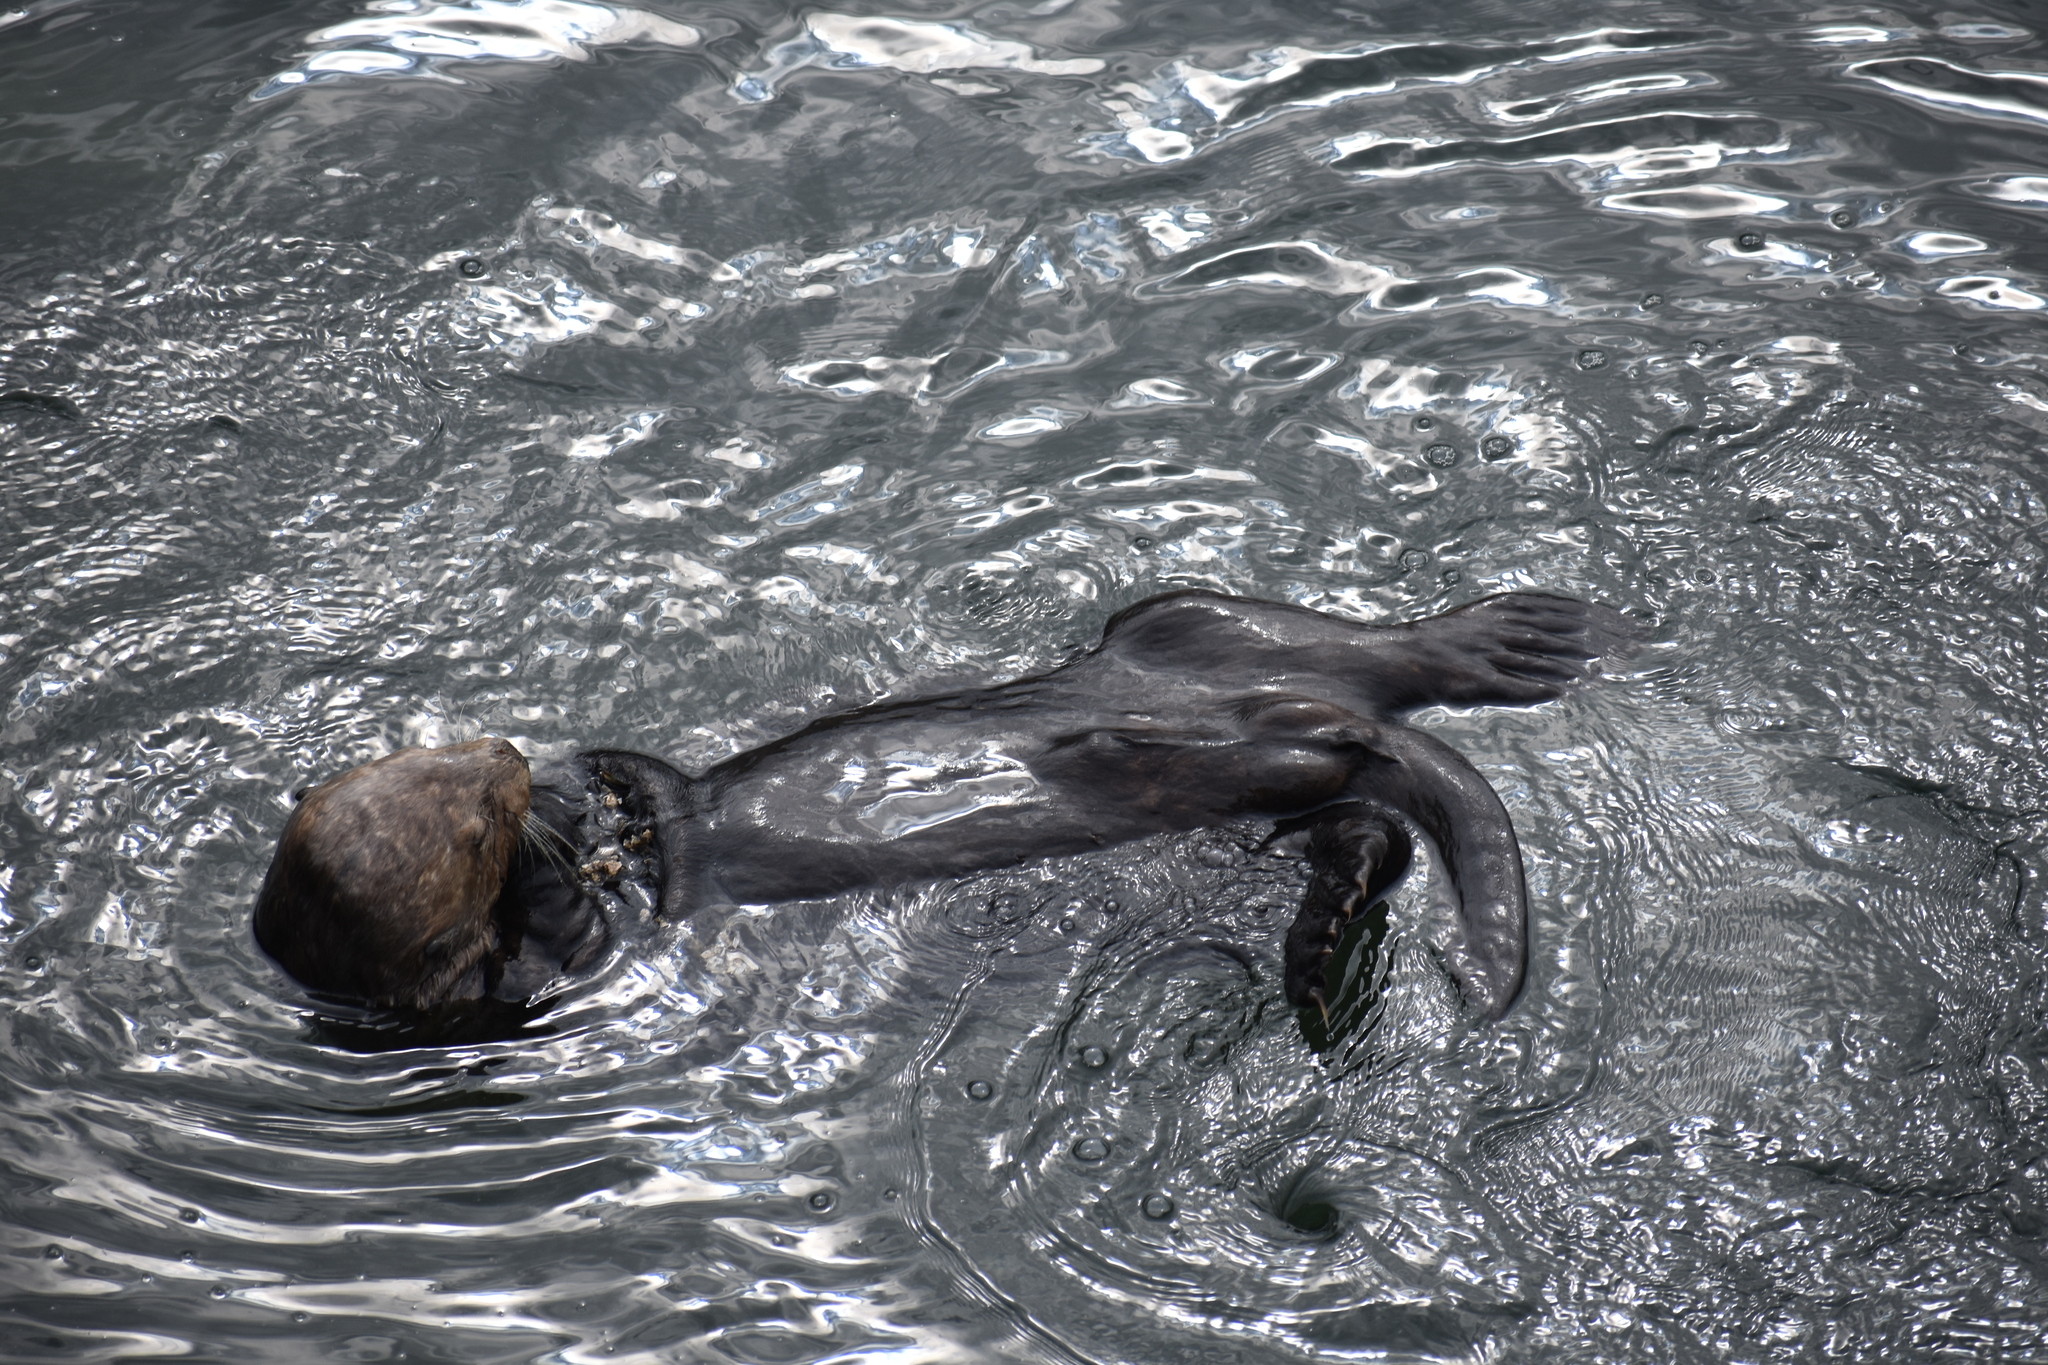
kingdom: Animalia
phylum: Chordata
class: Mammalia
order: Carnivora
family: Mustelidae
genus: Enhydra
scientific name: Enhydra lutris
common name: Sea otter
